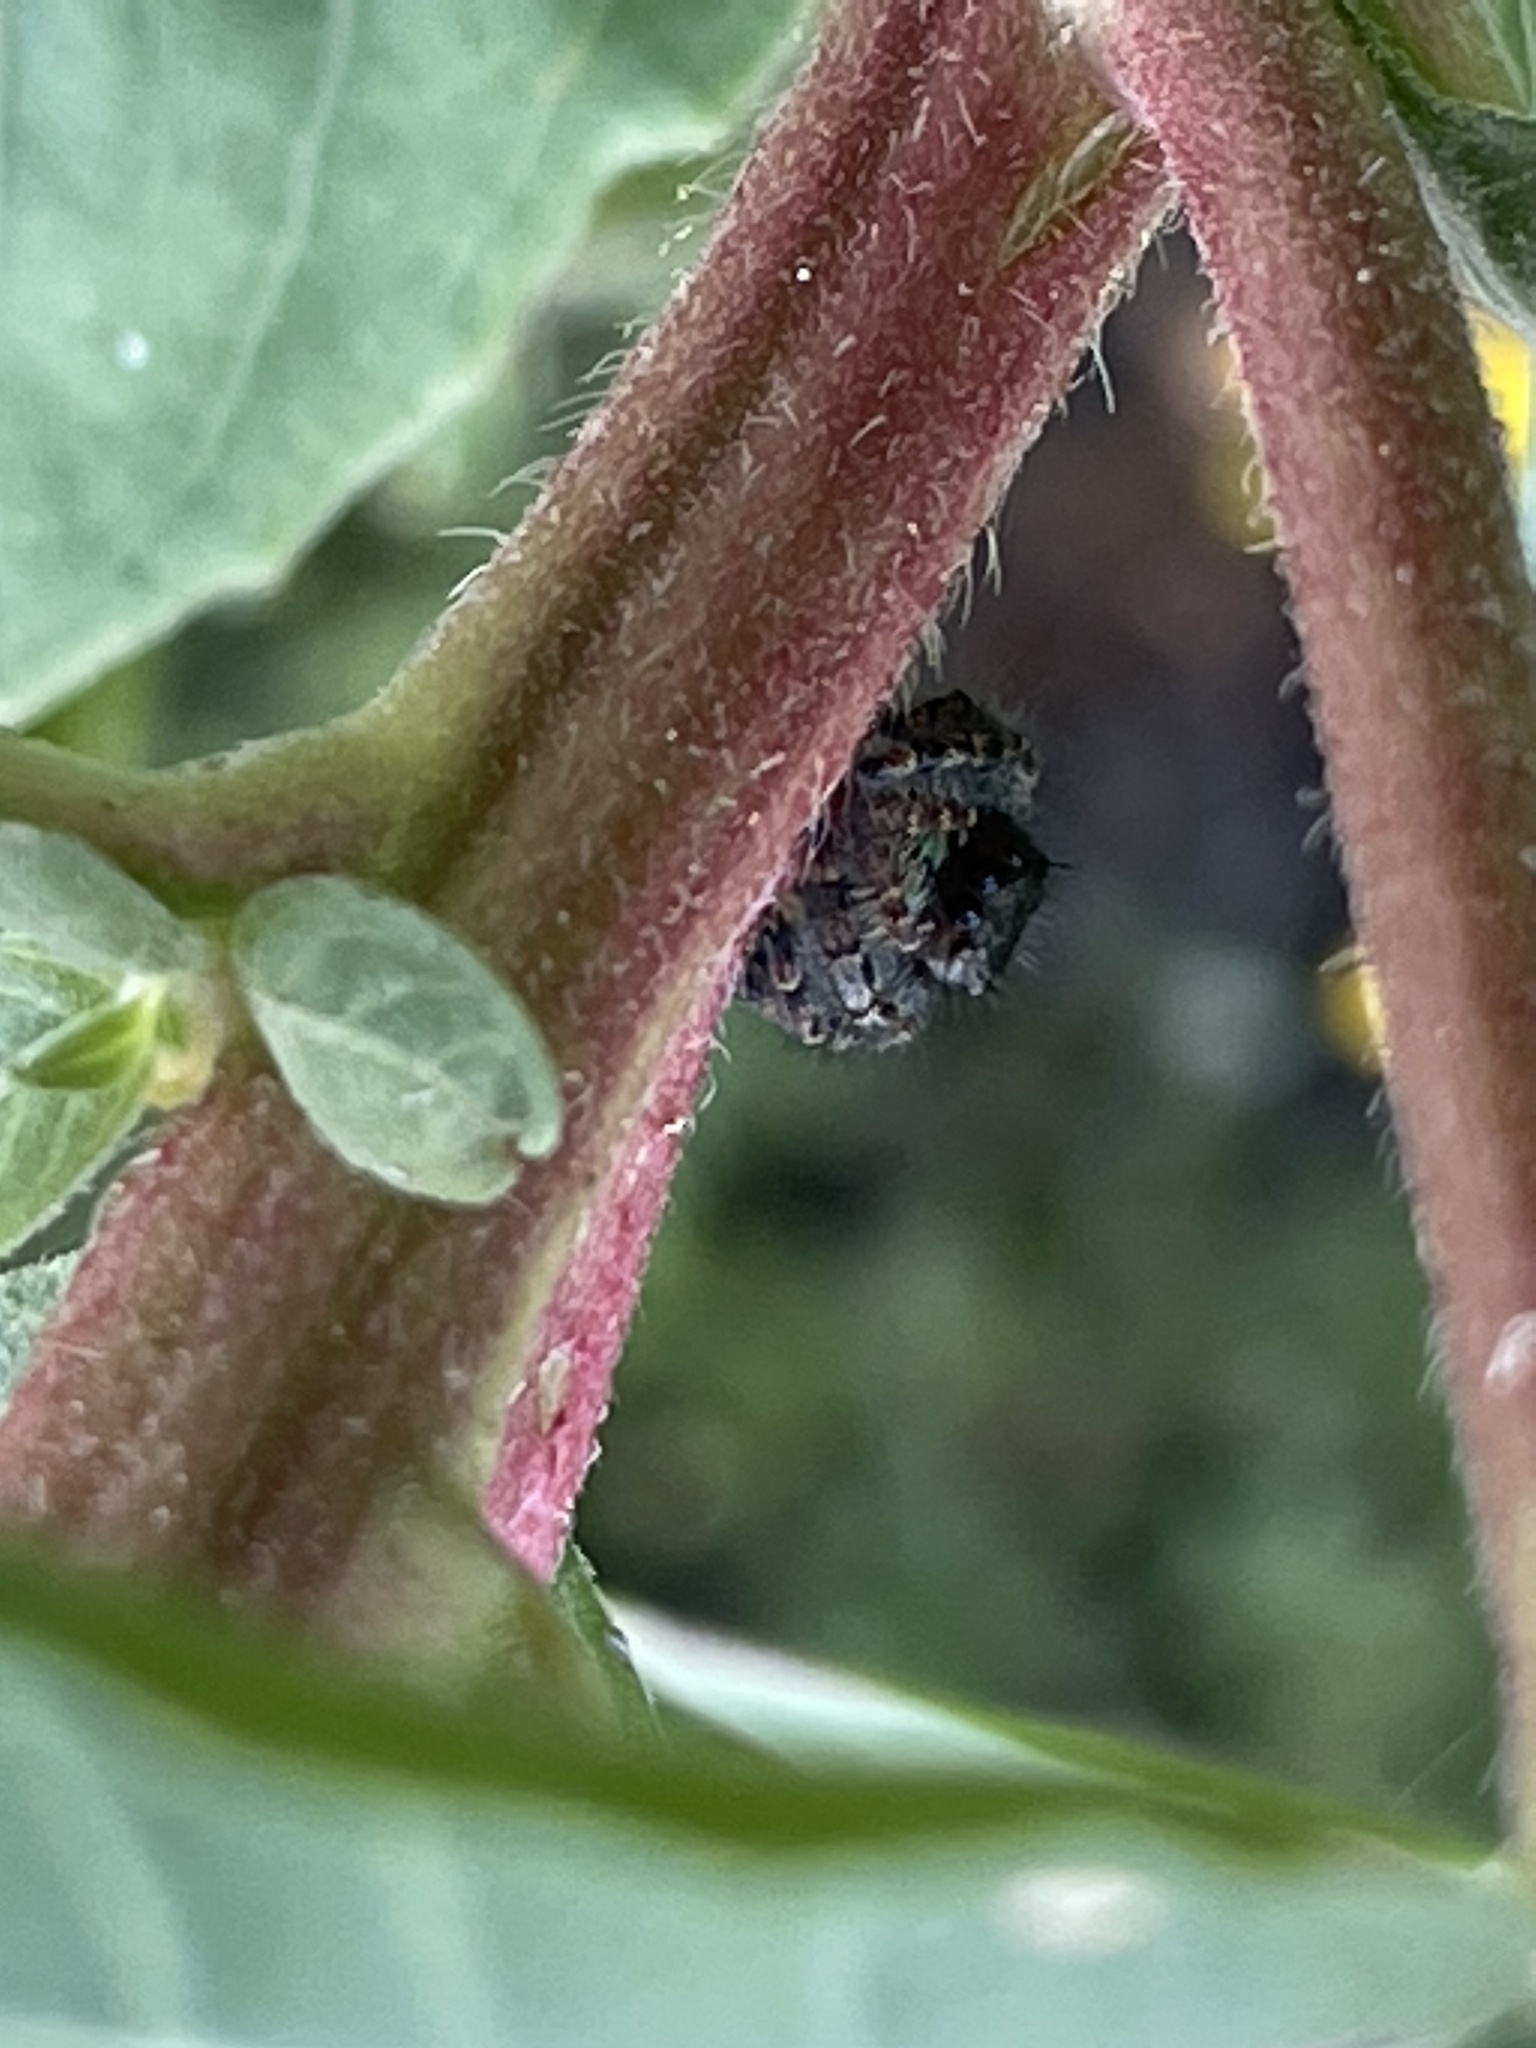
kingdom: Animalia
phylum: Arthropoda
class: Arachnida
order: Araneae
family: Salticidae
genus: Phidippus
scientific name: Phidippus audax
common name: Bold jumper
